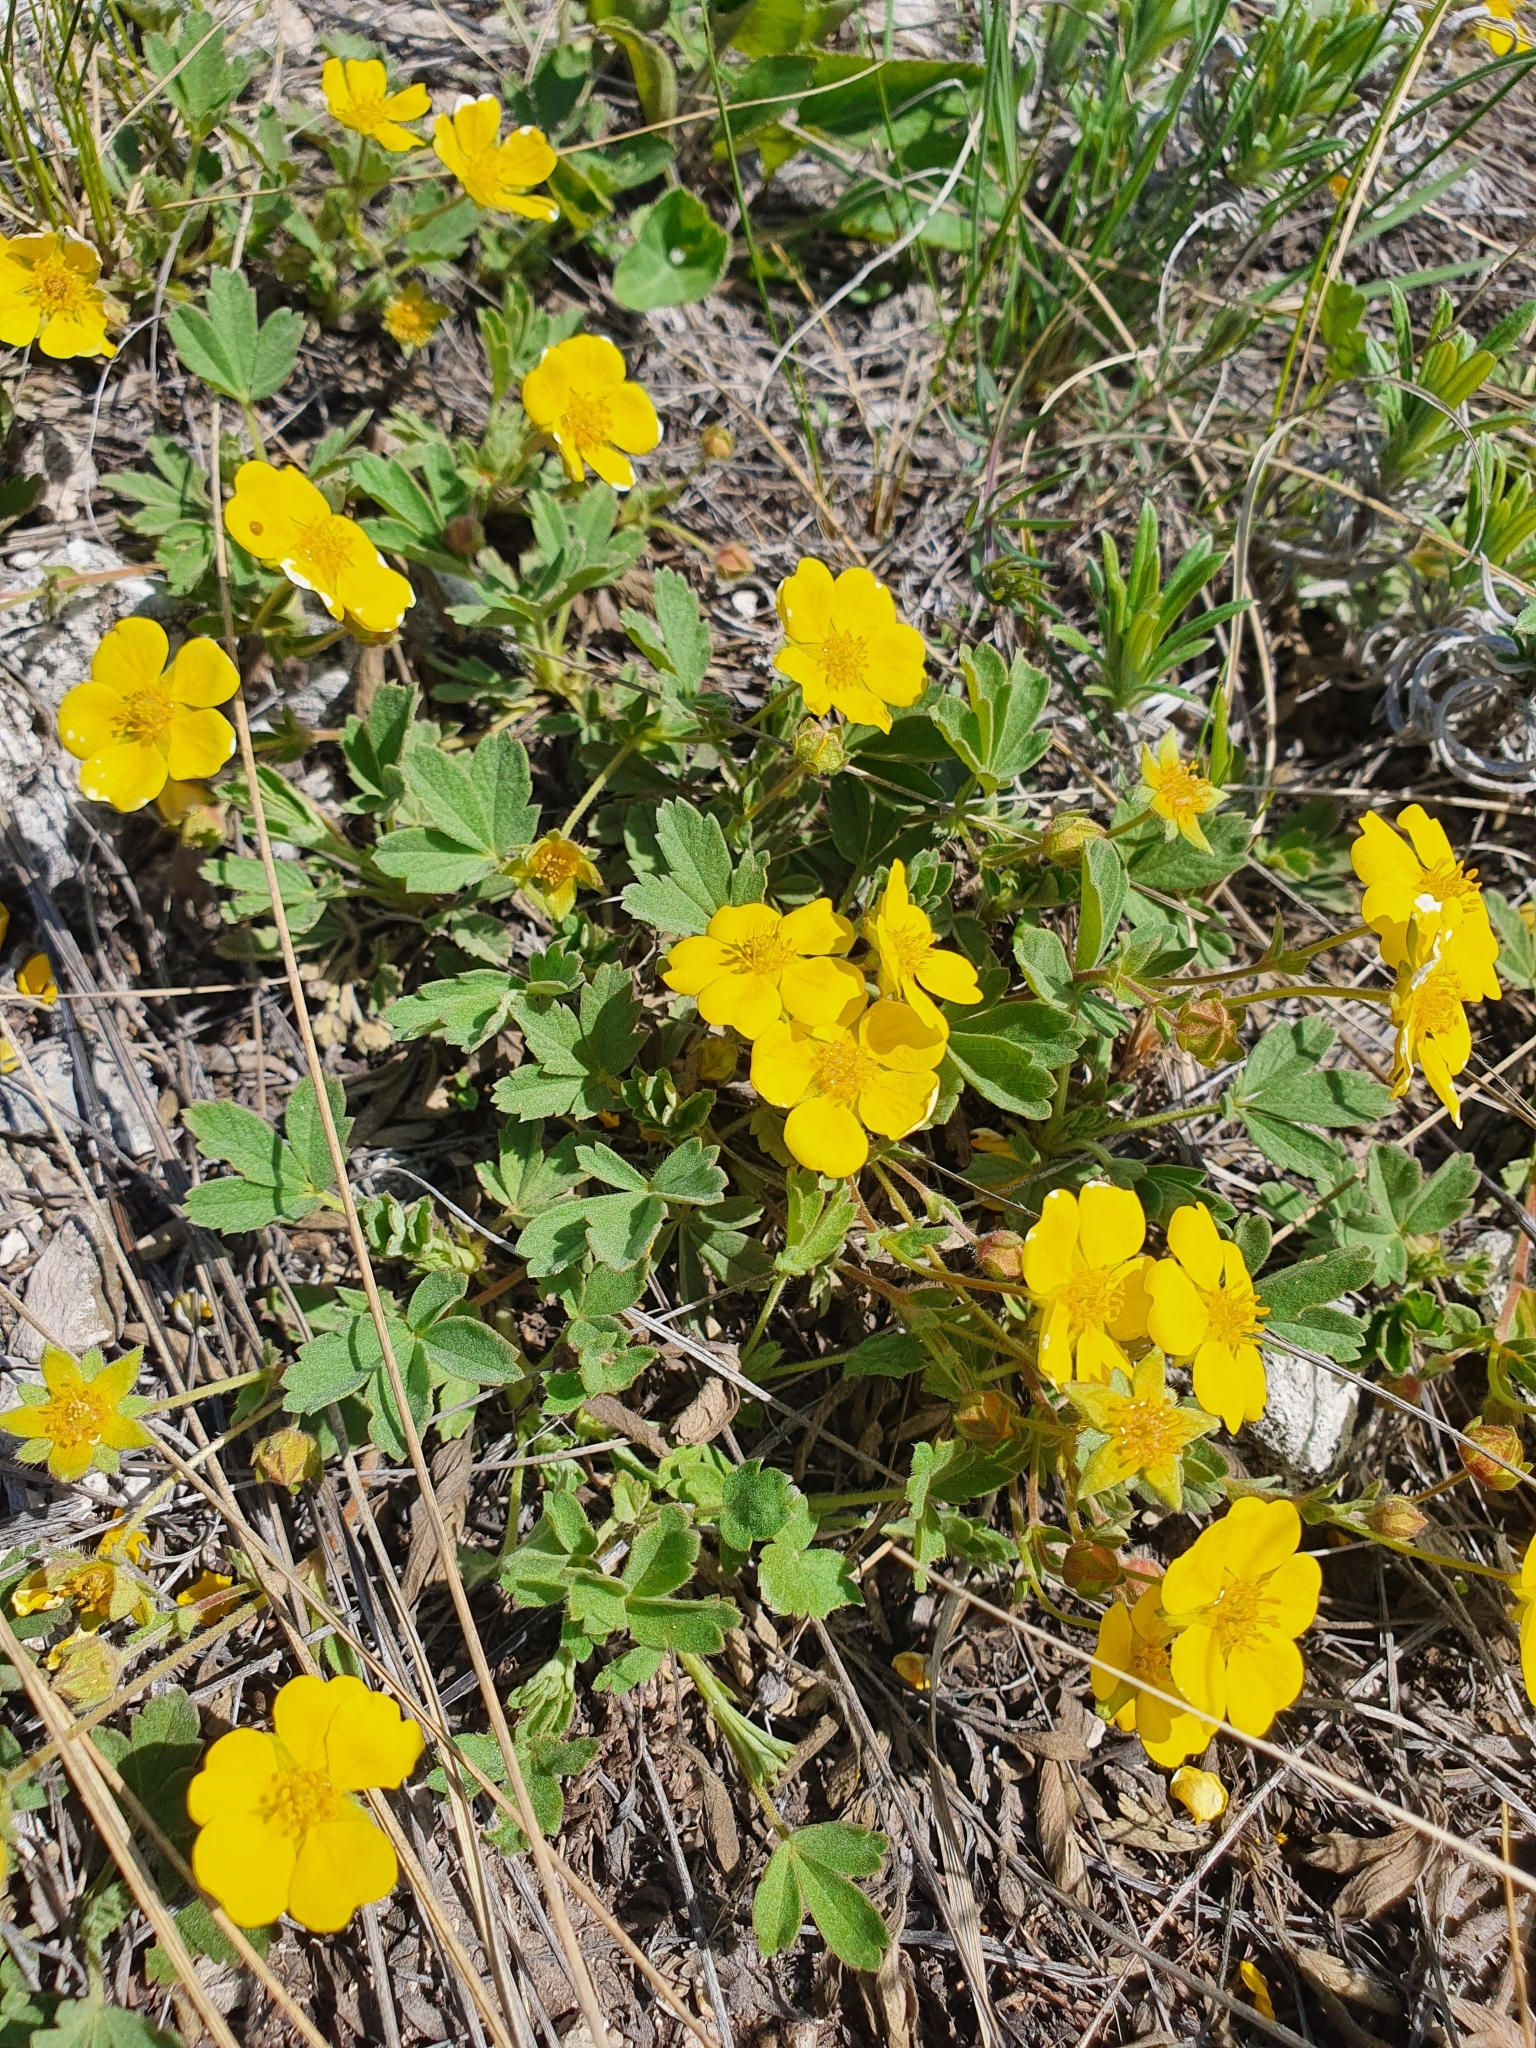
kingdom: Plantae
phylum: Tracheophyta
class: Magnoliopsida
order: Rosales
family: Rosaceae
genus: Potentilla
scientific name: Potentilla incana
